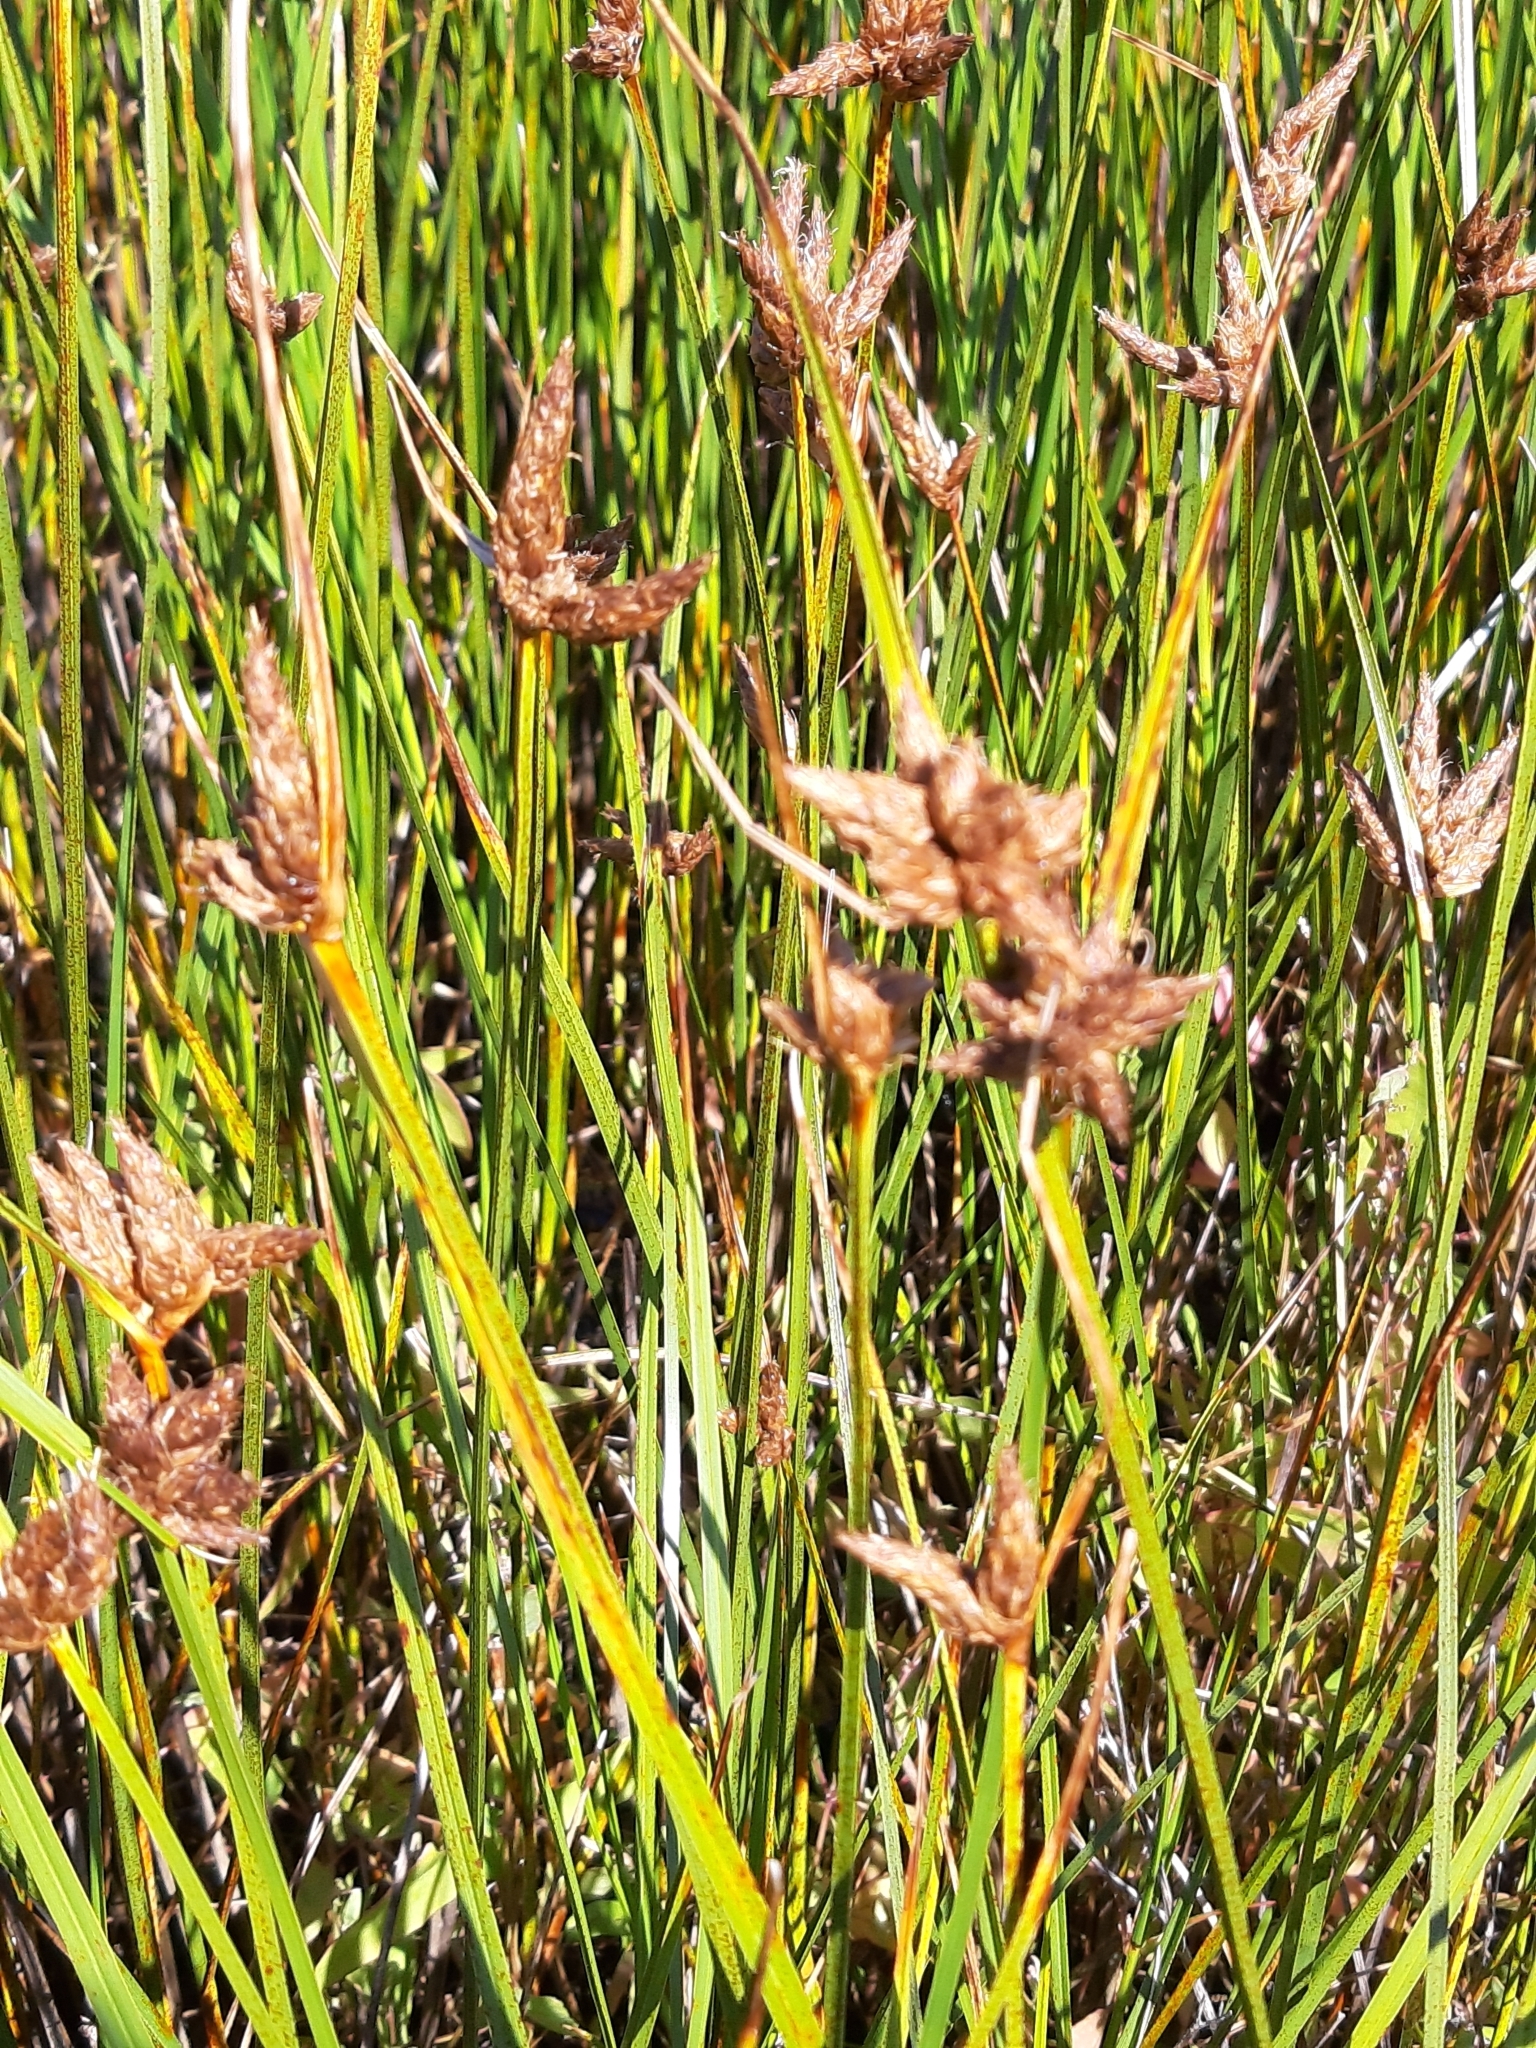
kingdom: Plantae
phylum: Tracheophyta
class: Liliopsida
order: Poales
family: Cyperaceae
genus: Bolboschoenus
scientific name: Bolboschoenus maritimus
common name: Sea club-rush
